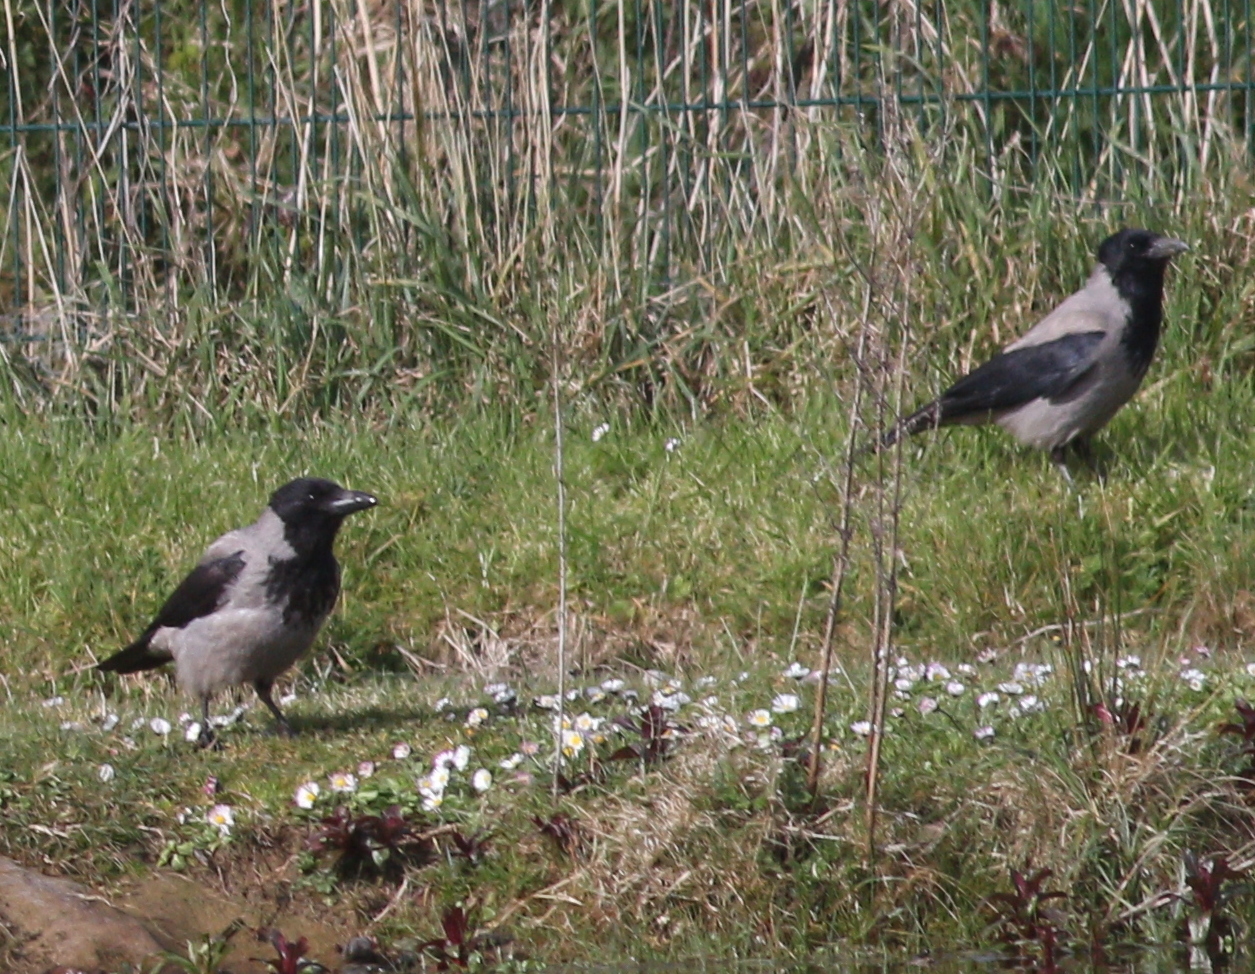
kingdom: Animalia
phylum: Chordata
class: Aves
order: Passeriformes
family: Corvidae
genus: Corvus
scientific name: Corvus cornix
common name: Hooded crow
